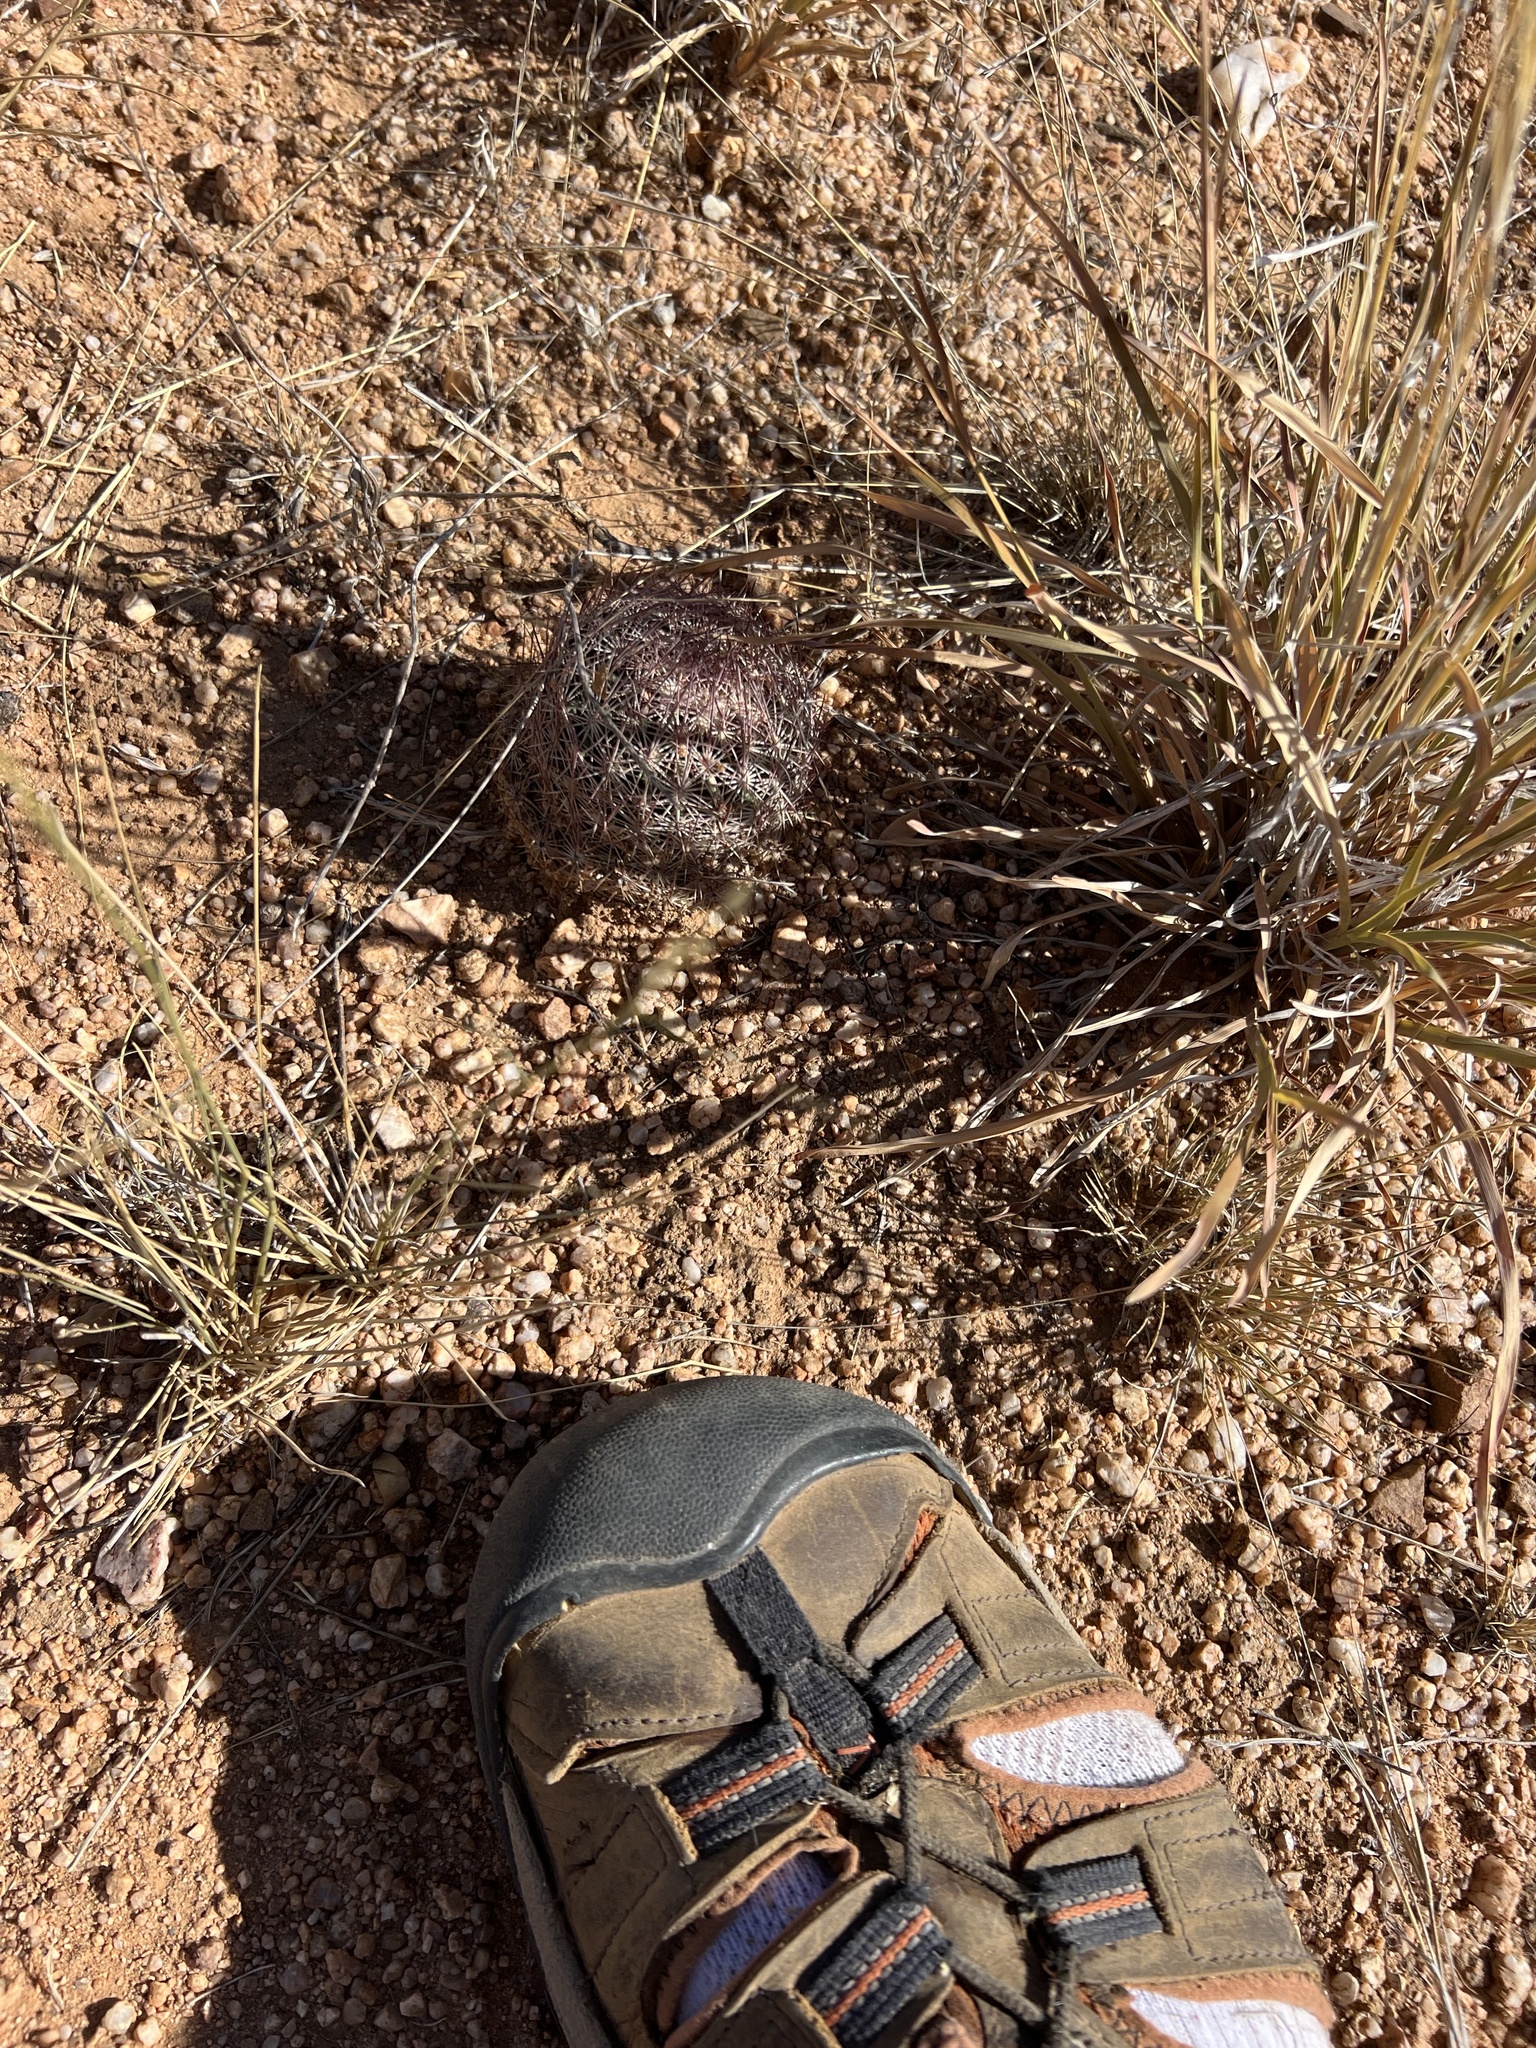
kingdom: Plantae
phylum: Tracheophyta
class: Magnoliopsida
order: Caryophyllales
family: Cactaceae
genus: Sclerocactus
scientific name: Sclerocactus johnsonii
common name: Eight-spine fishhook cactus
